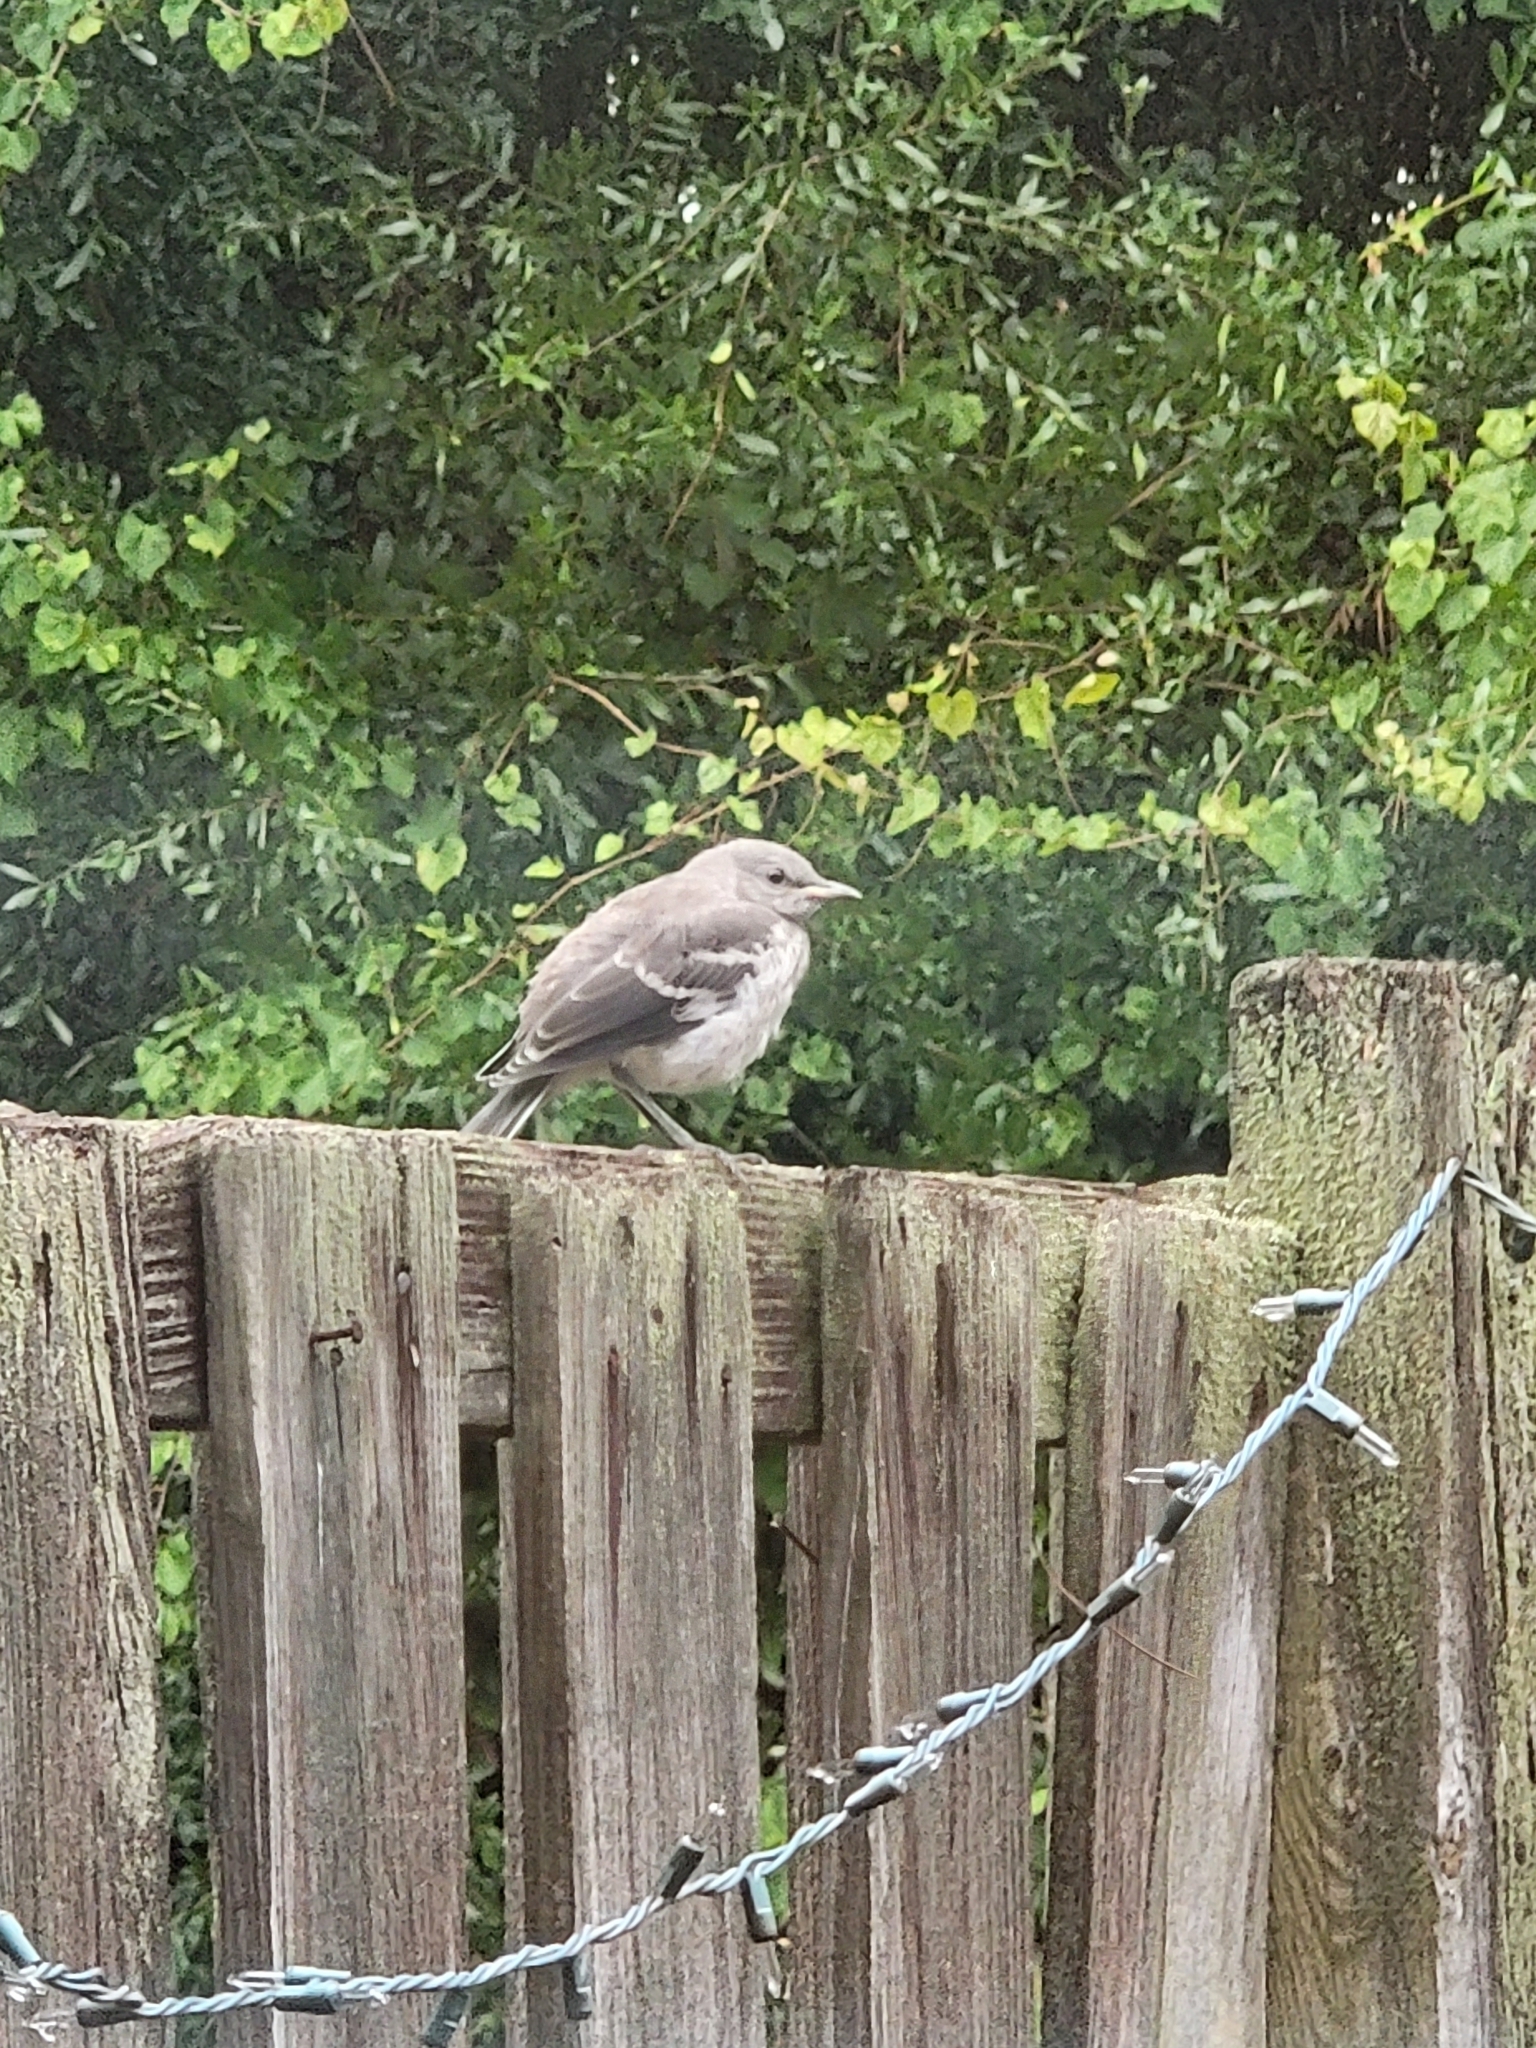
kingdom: Animalia
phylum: Chordata
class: Aves
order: Passeriformes
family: Mimidae
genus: Mimus
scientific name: Mimus polyglottos
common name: Northern mockingbird
